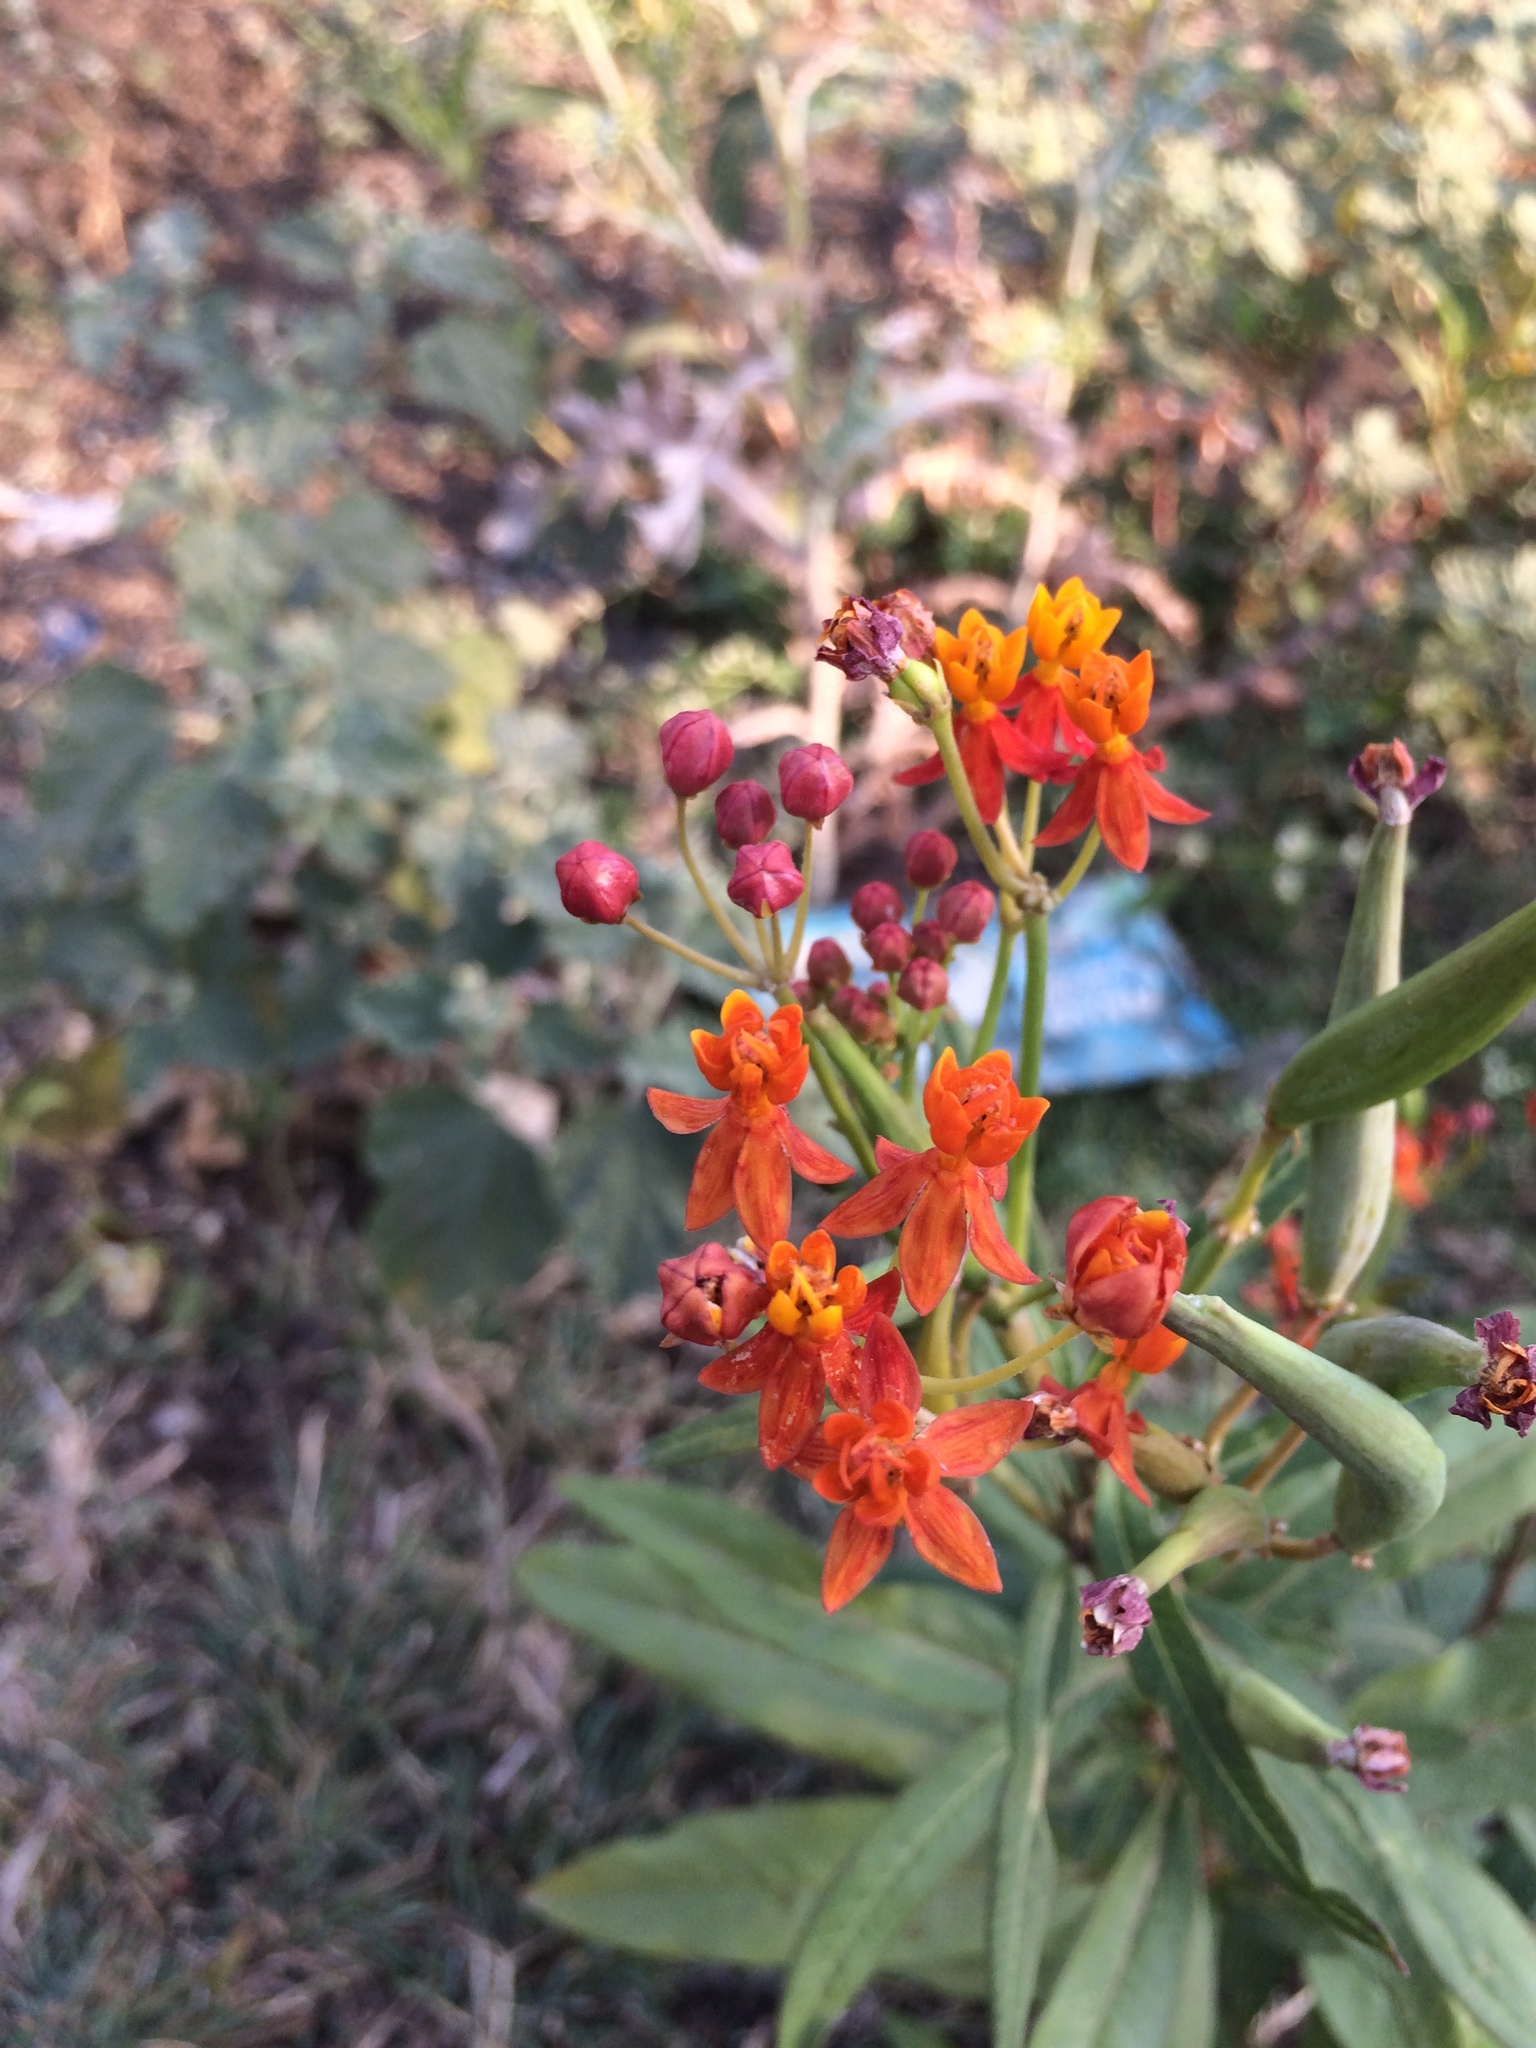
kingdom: Plantae
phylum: Tracheophyta
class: Magnoliopsida
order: Gentianales
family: Apocynaceae
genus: Asclepias
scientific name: Asclepias curassavica
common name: Bloodflower
